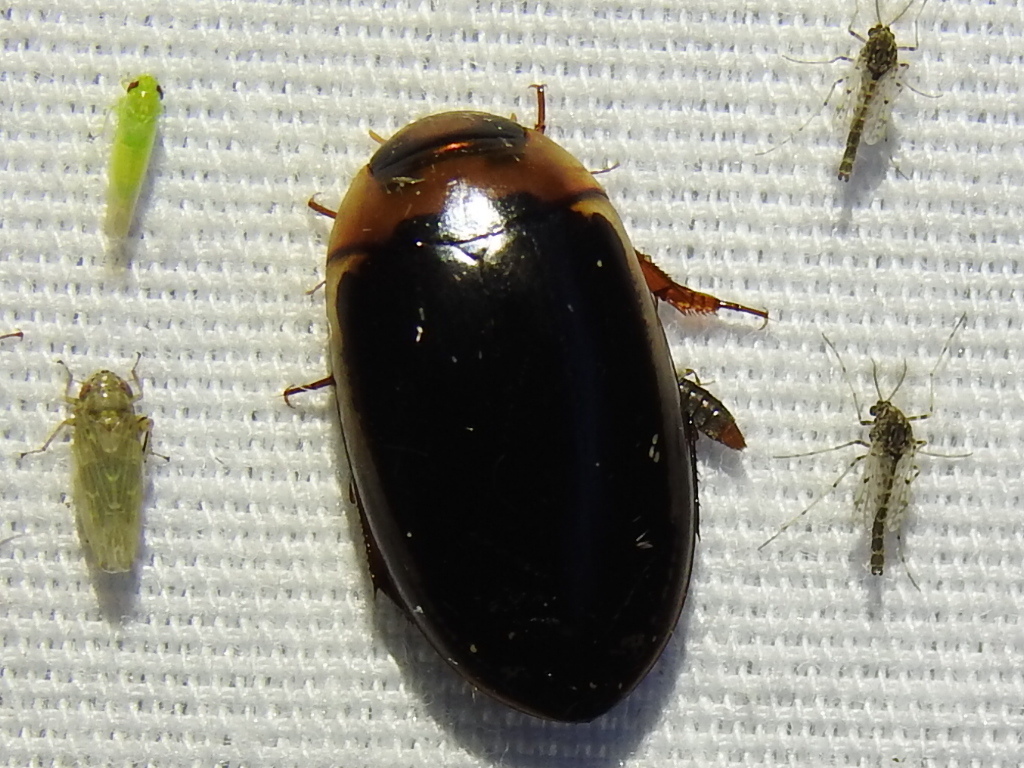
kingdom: Animalia
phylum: Arthropoda
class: Insecta
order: Coleoptera
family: Dytiscidae
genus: Hydaticus
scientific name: Hydaticus bimarginatus
